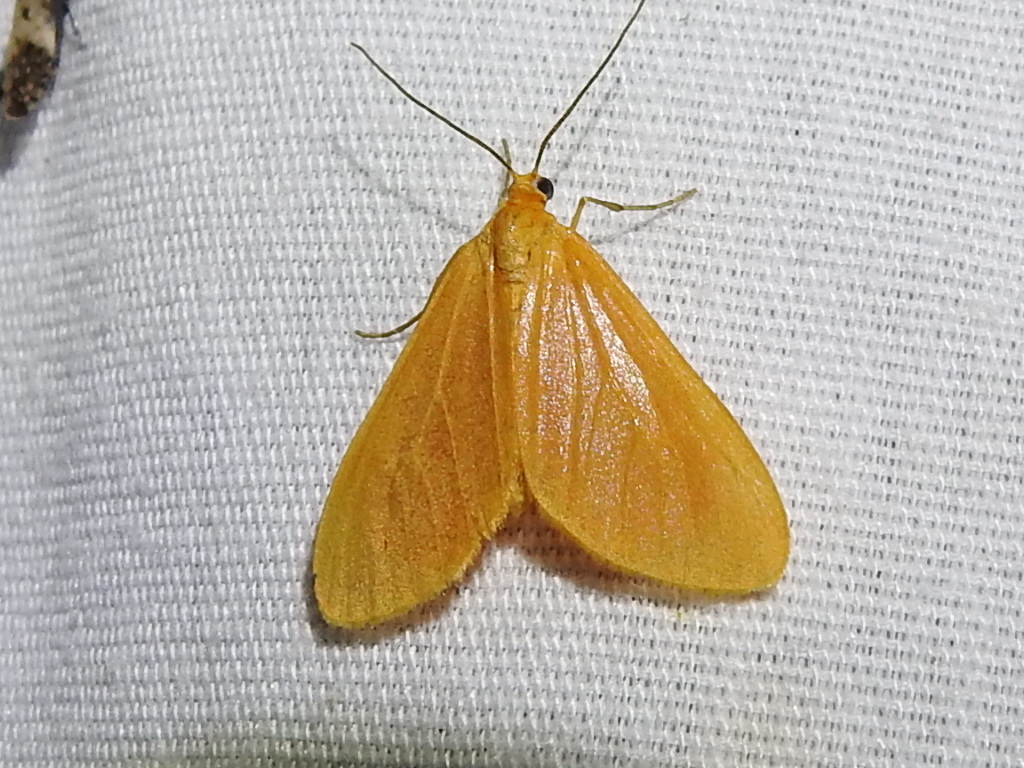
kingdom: Animalia
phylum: Arthropoda
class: Insecta
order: Lepidoptera
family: Geometridae
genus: Eubaphe
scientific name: Eubaphe unicolor
